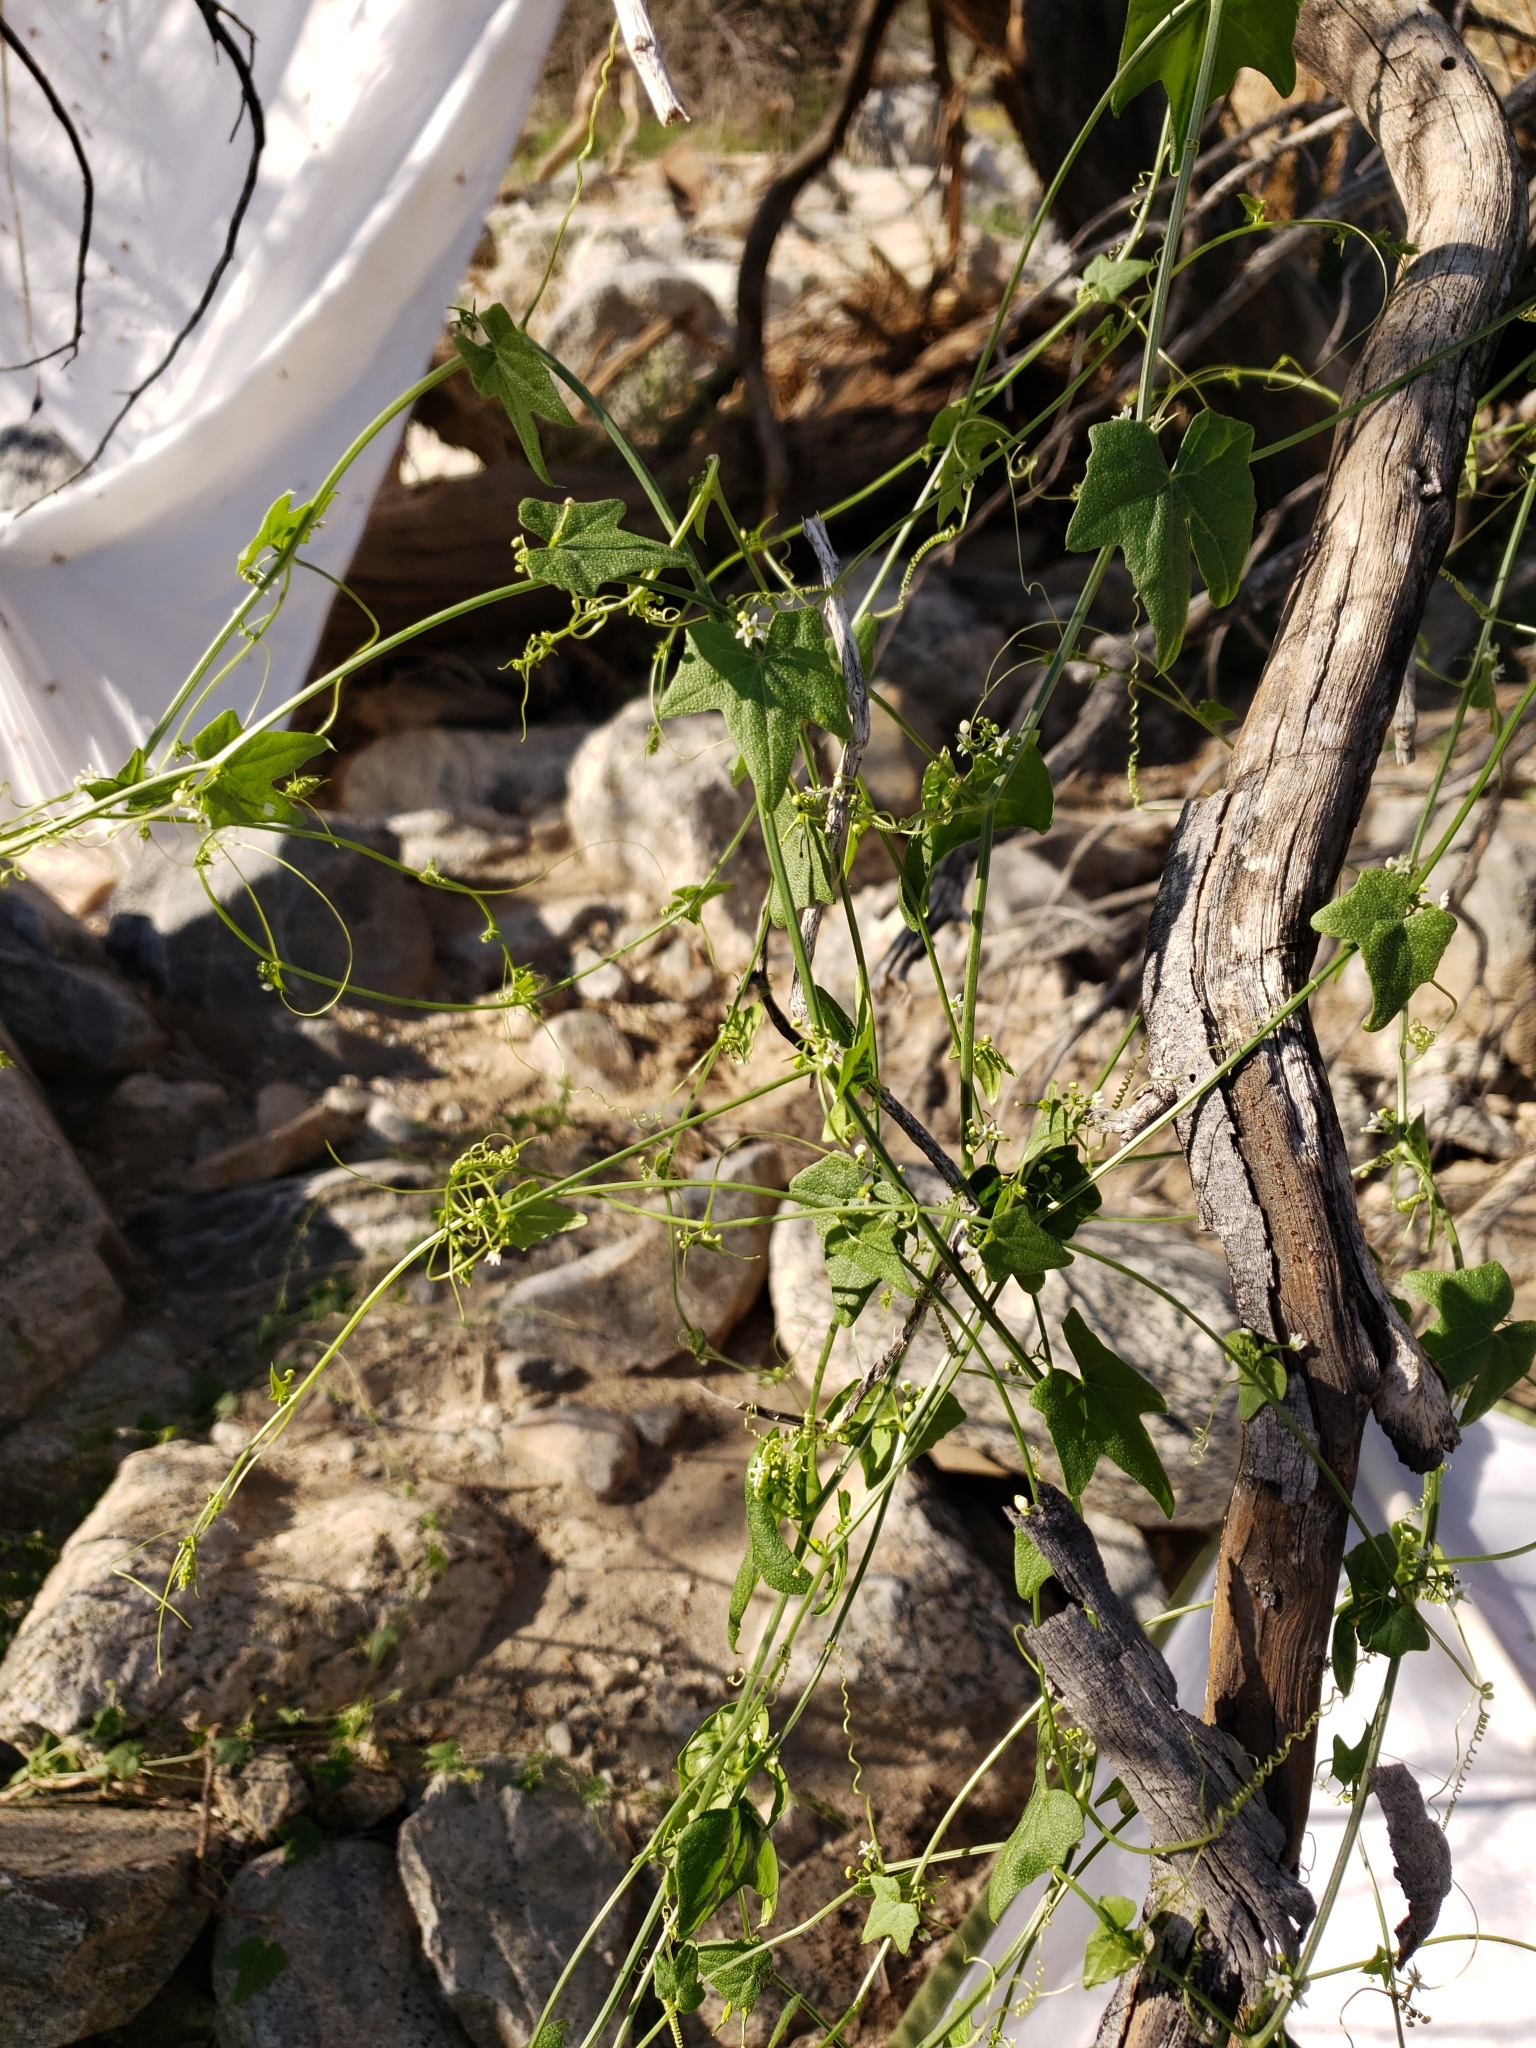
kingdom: Plantae
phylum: Tracheophyta
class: Magnoliopsida
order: Cucurbitales
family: Cucurbitaceae
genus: Echinopepon
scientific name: Echinopepon bigelovii
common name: Desert starvine
